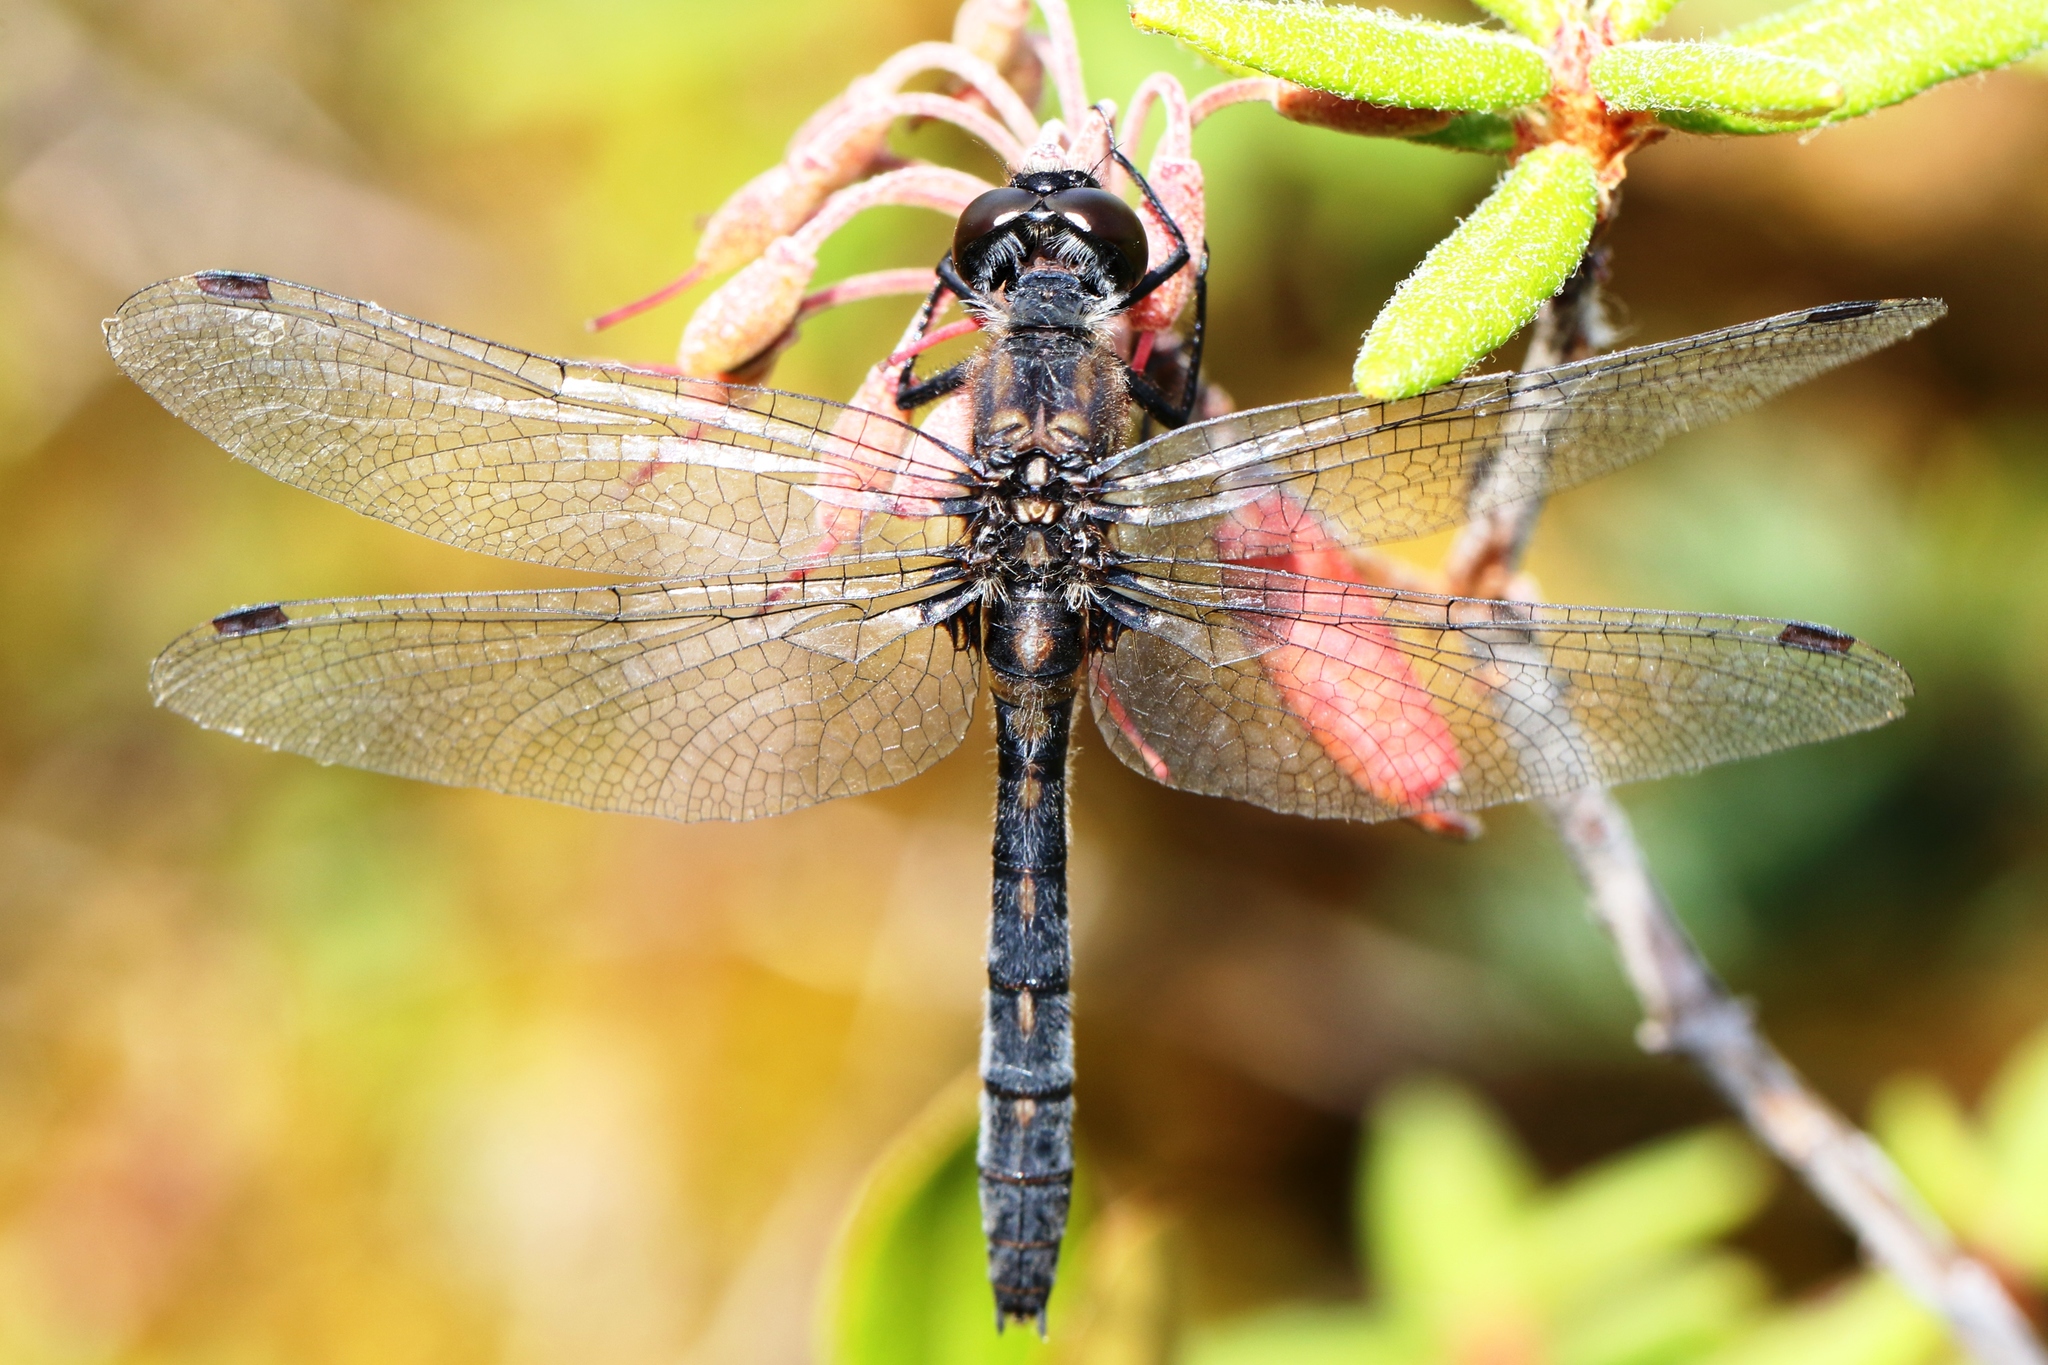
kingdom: Animalia
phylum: Arthropoda
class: Insecta
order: Odonata
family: Libellulidae
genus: Leucorrhinia
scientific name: Leucorrhinia glacialis
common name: Crimson-ringed whiteface
